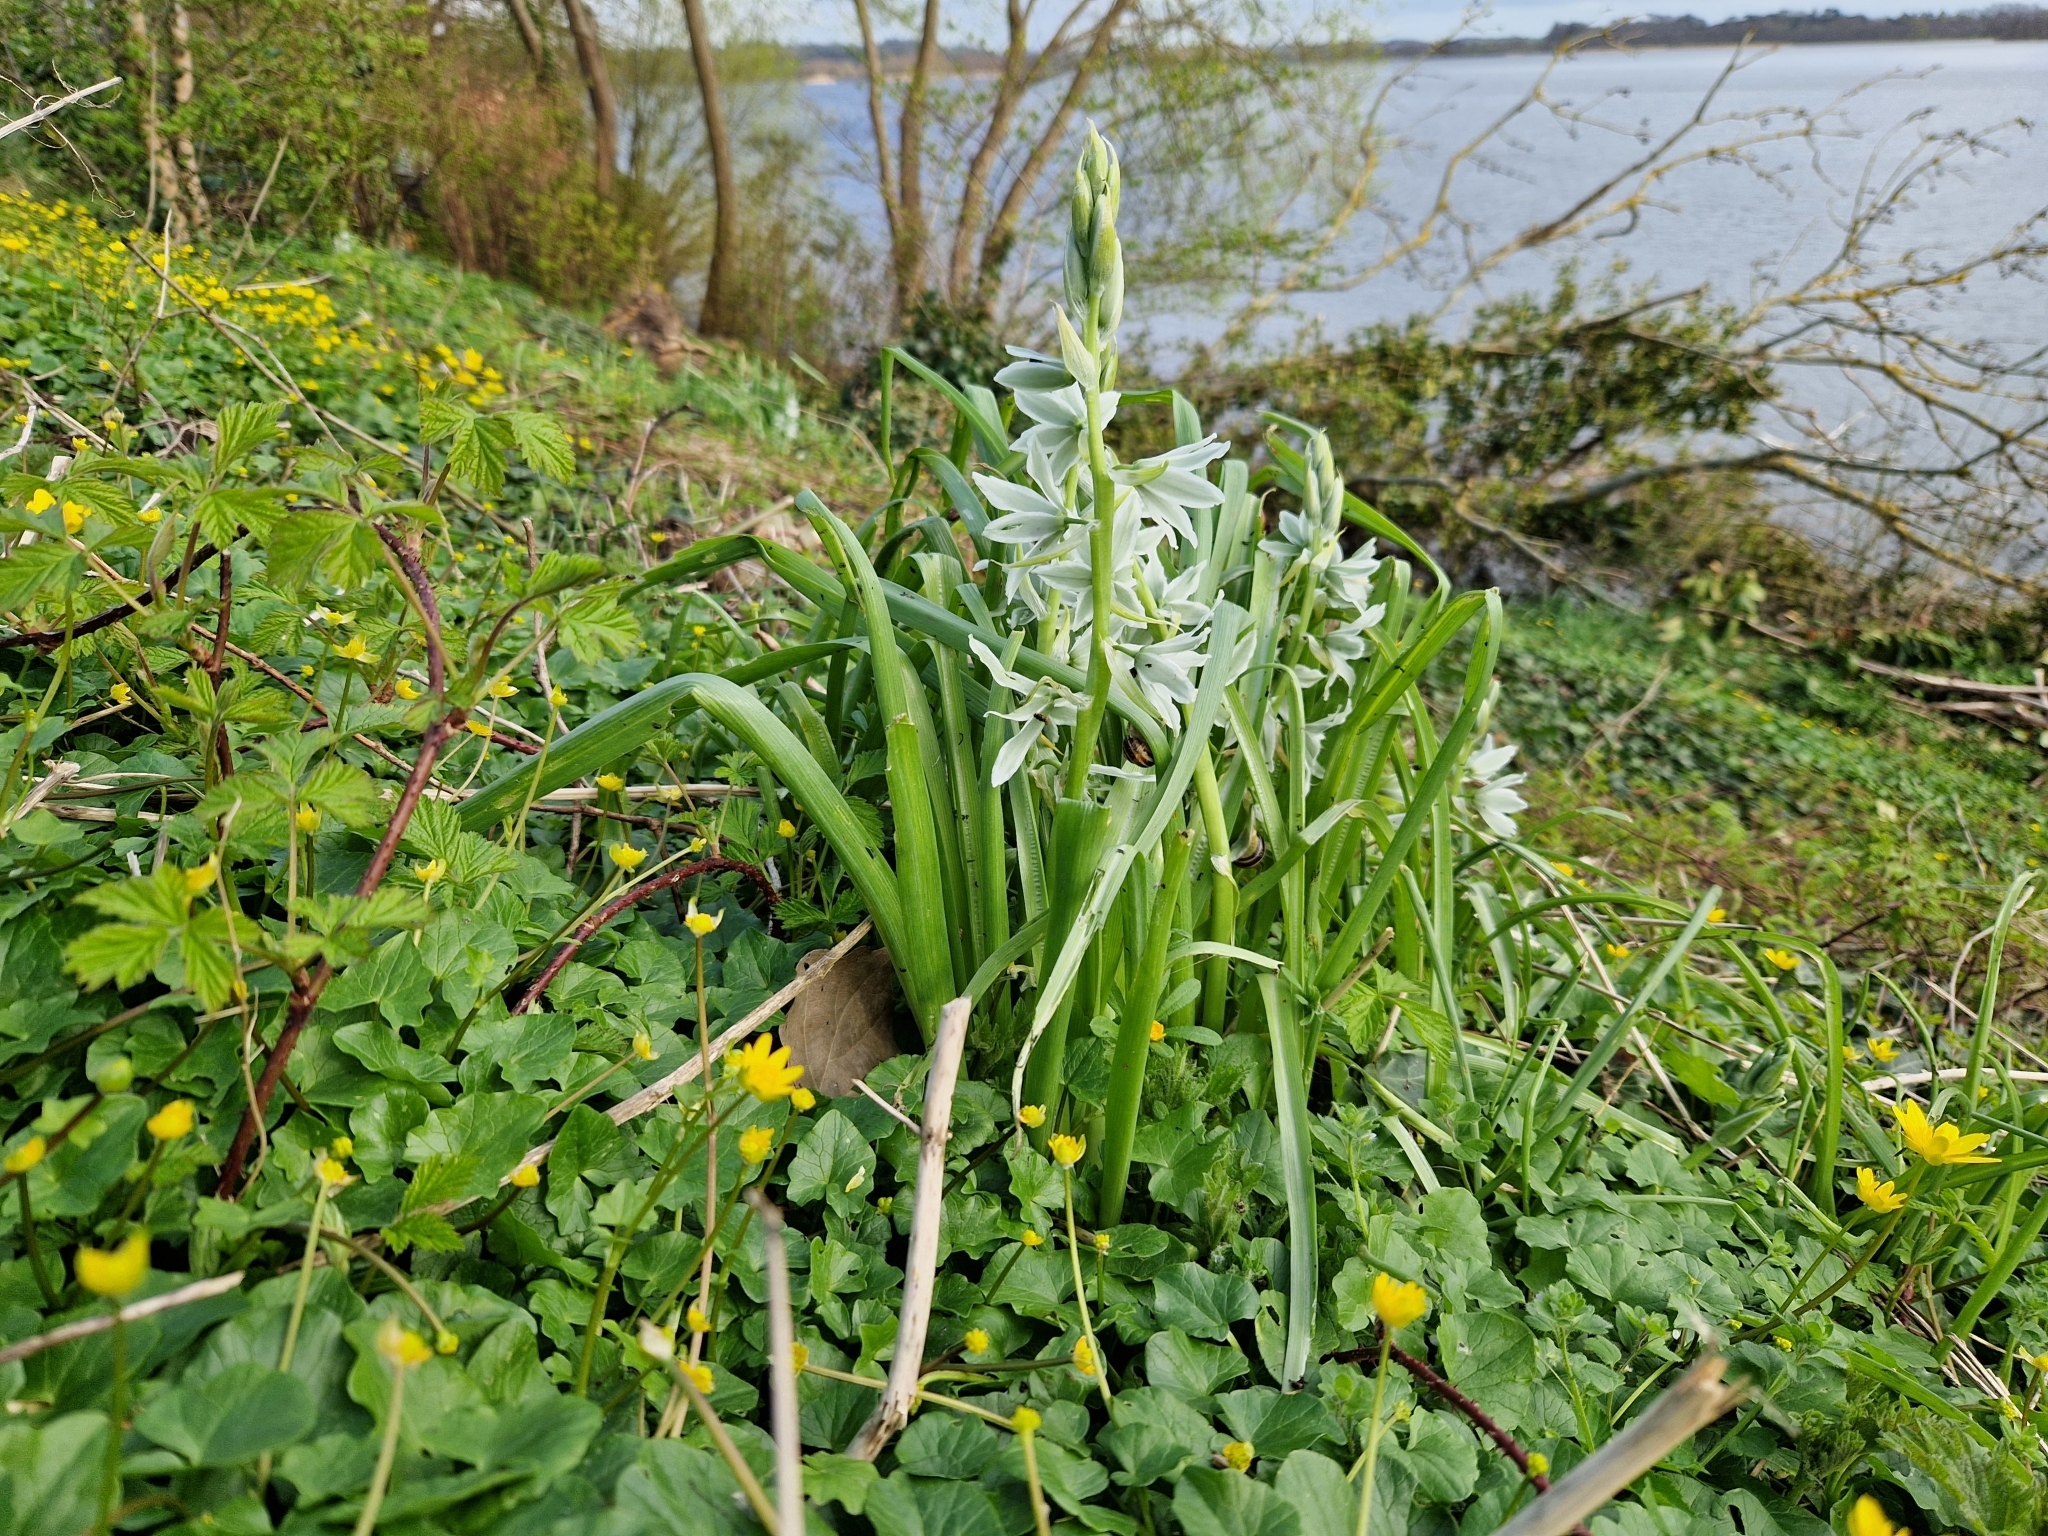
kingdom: Plantae
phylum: Tracheophyta
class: Liliopsida
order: Asparagales
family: Asparagaceae
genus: Ornithogalum
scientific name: Ornithogalum nutans
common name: Drooping star-of-bethlehem
